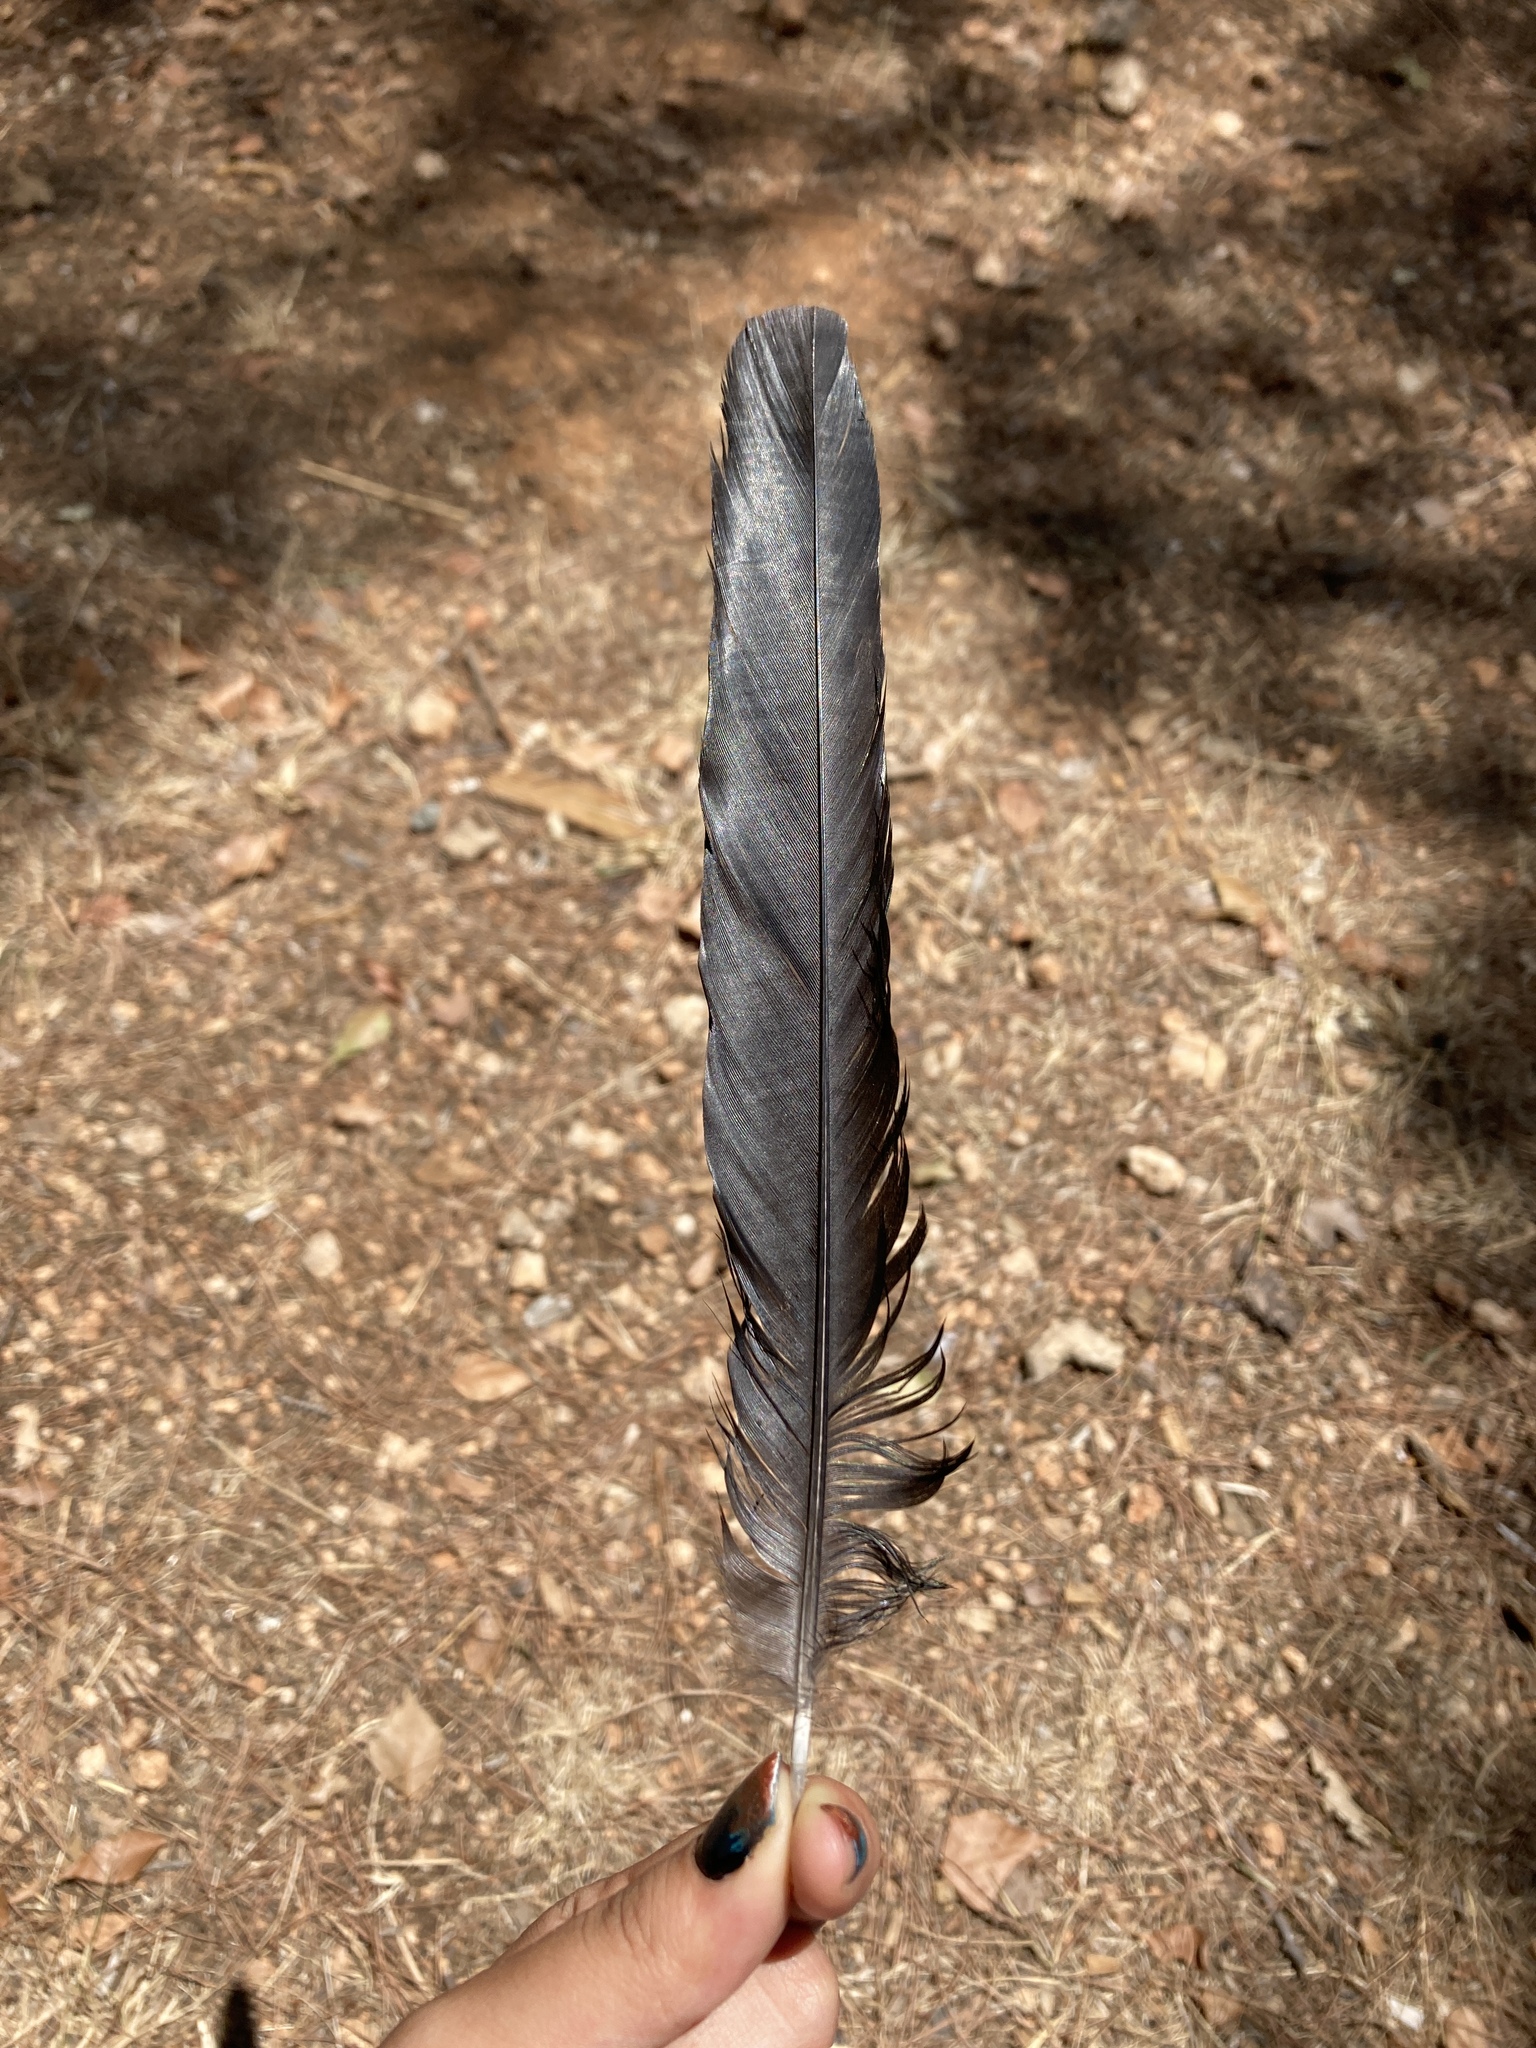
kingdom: Animalia
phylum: Chordata
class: Aves
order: Passeriformes
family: Corvidae
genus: Pica
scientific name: Pica pica
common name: Eurasian magpie
